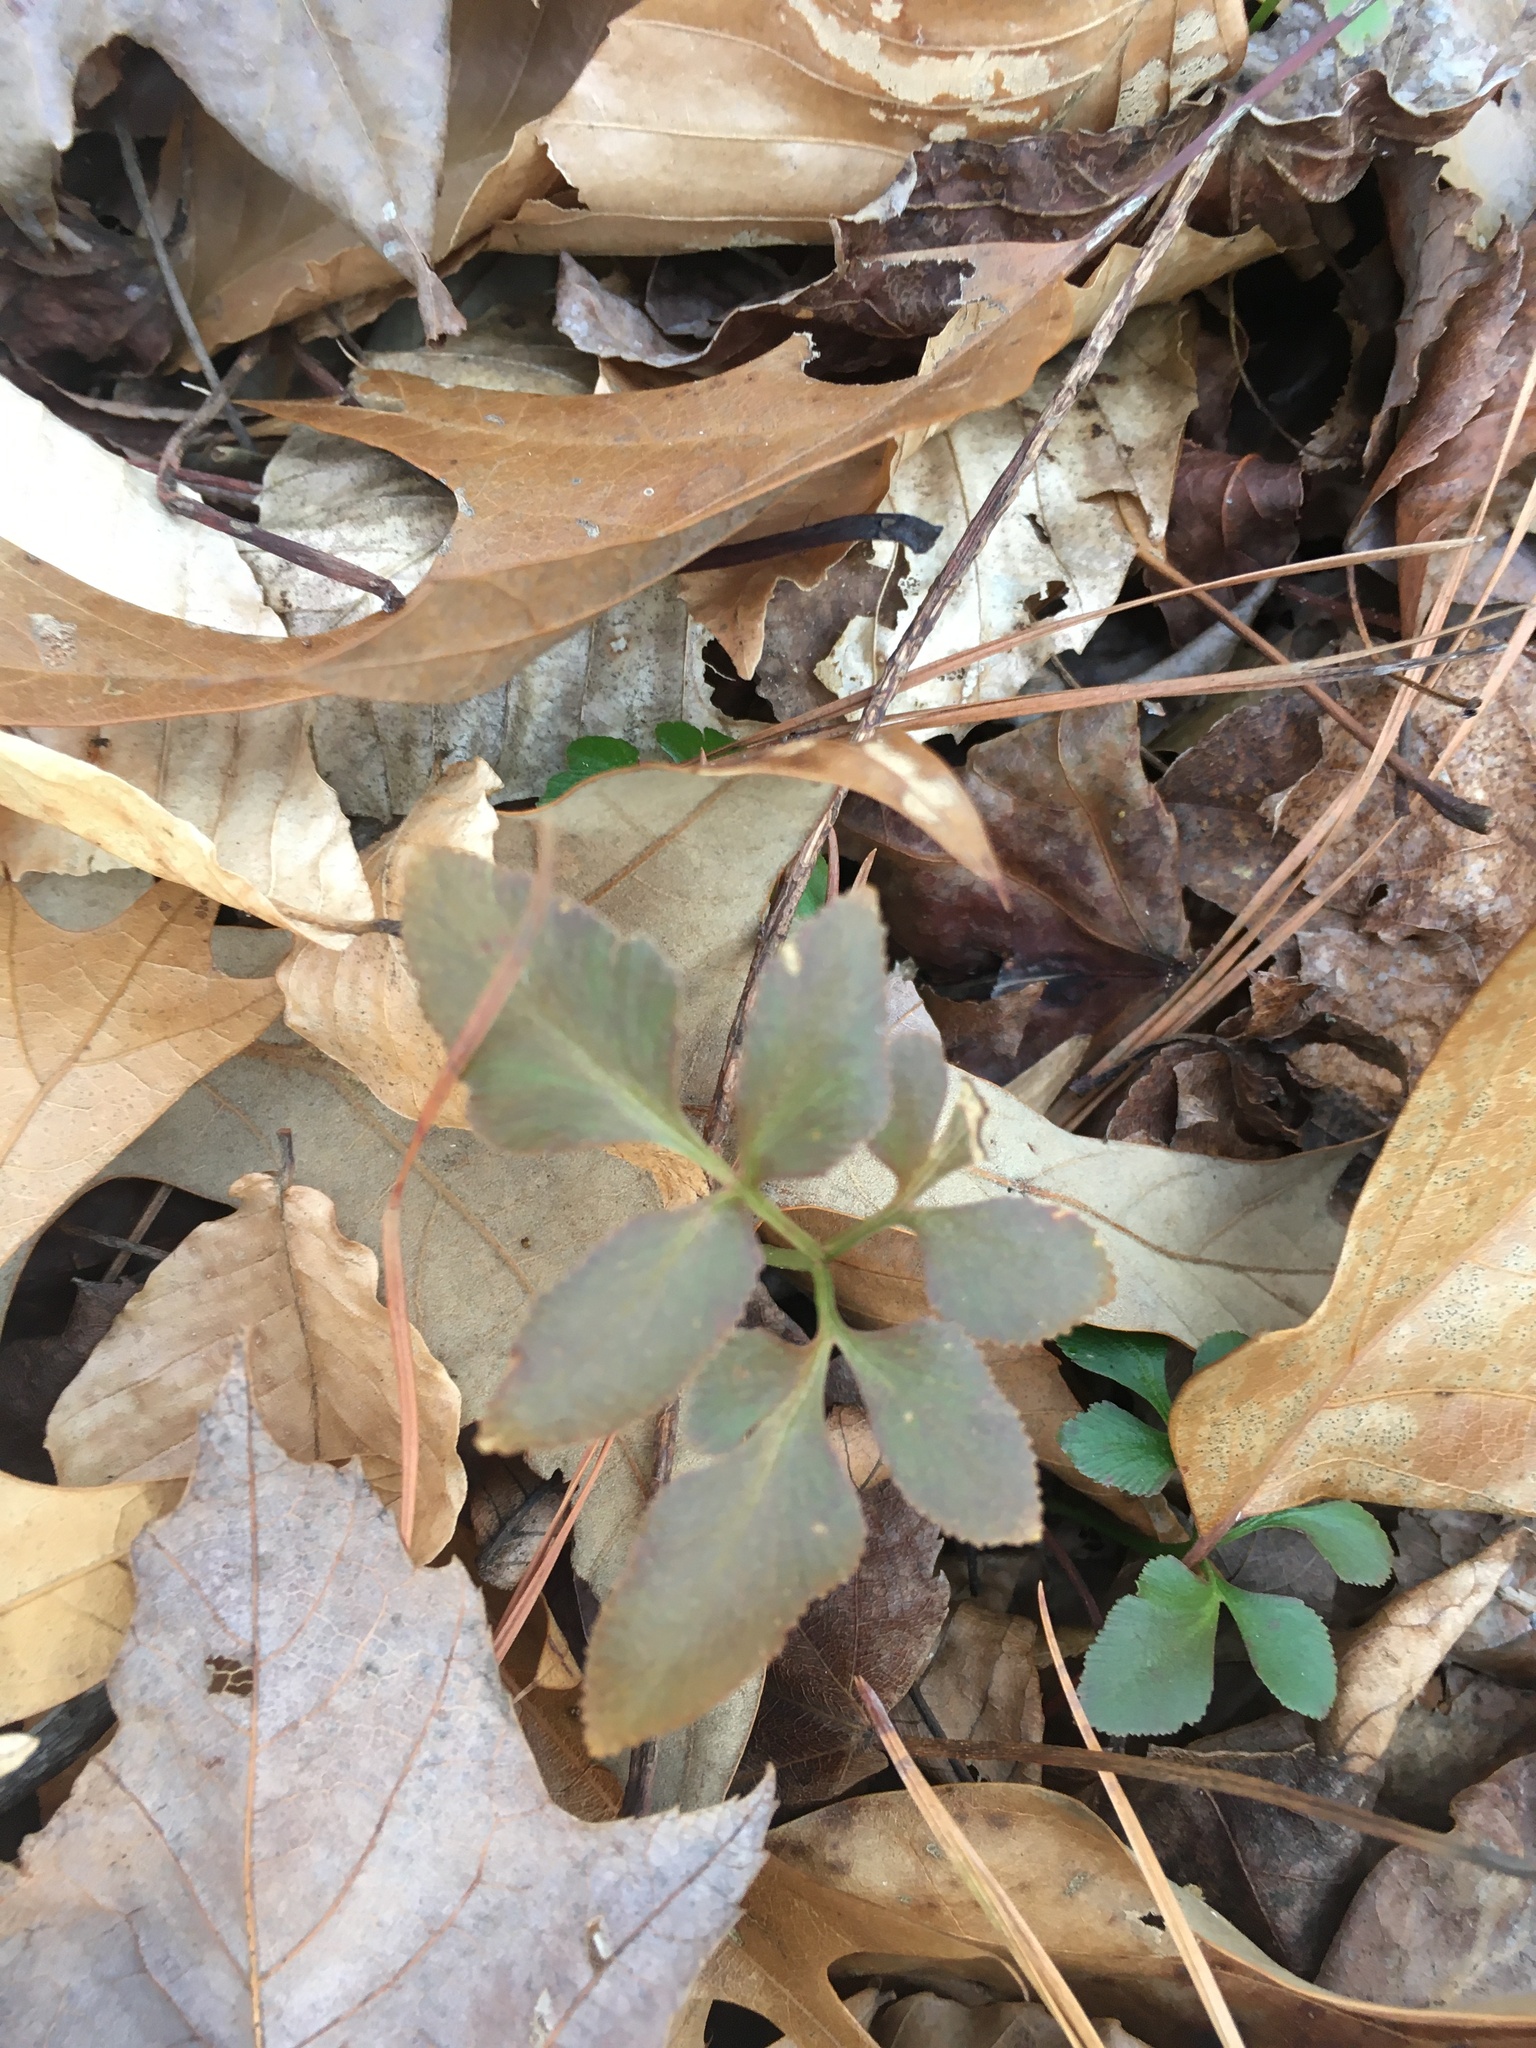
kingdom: Plantae
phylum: Tracheophyta
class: Polypodiopsida
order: Ophioglossales
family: Ophioglossaceae
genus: Sceptridium
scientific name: Sceptridium biternatum
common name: Sparse-lobed grapefern
